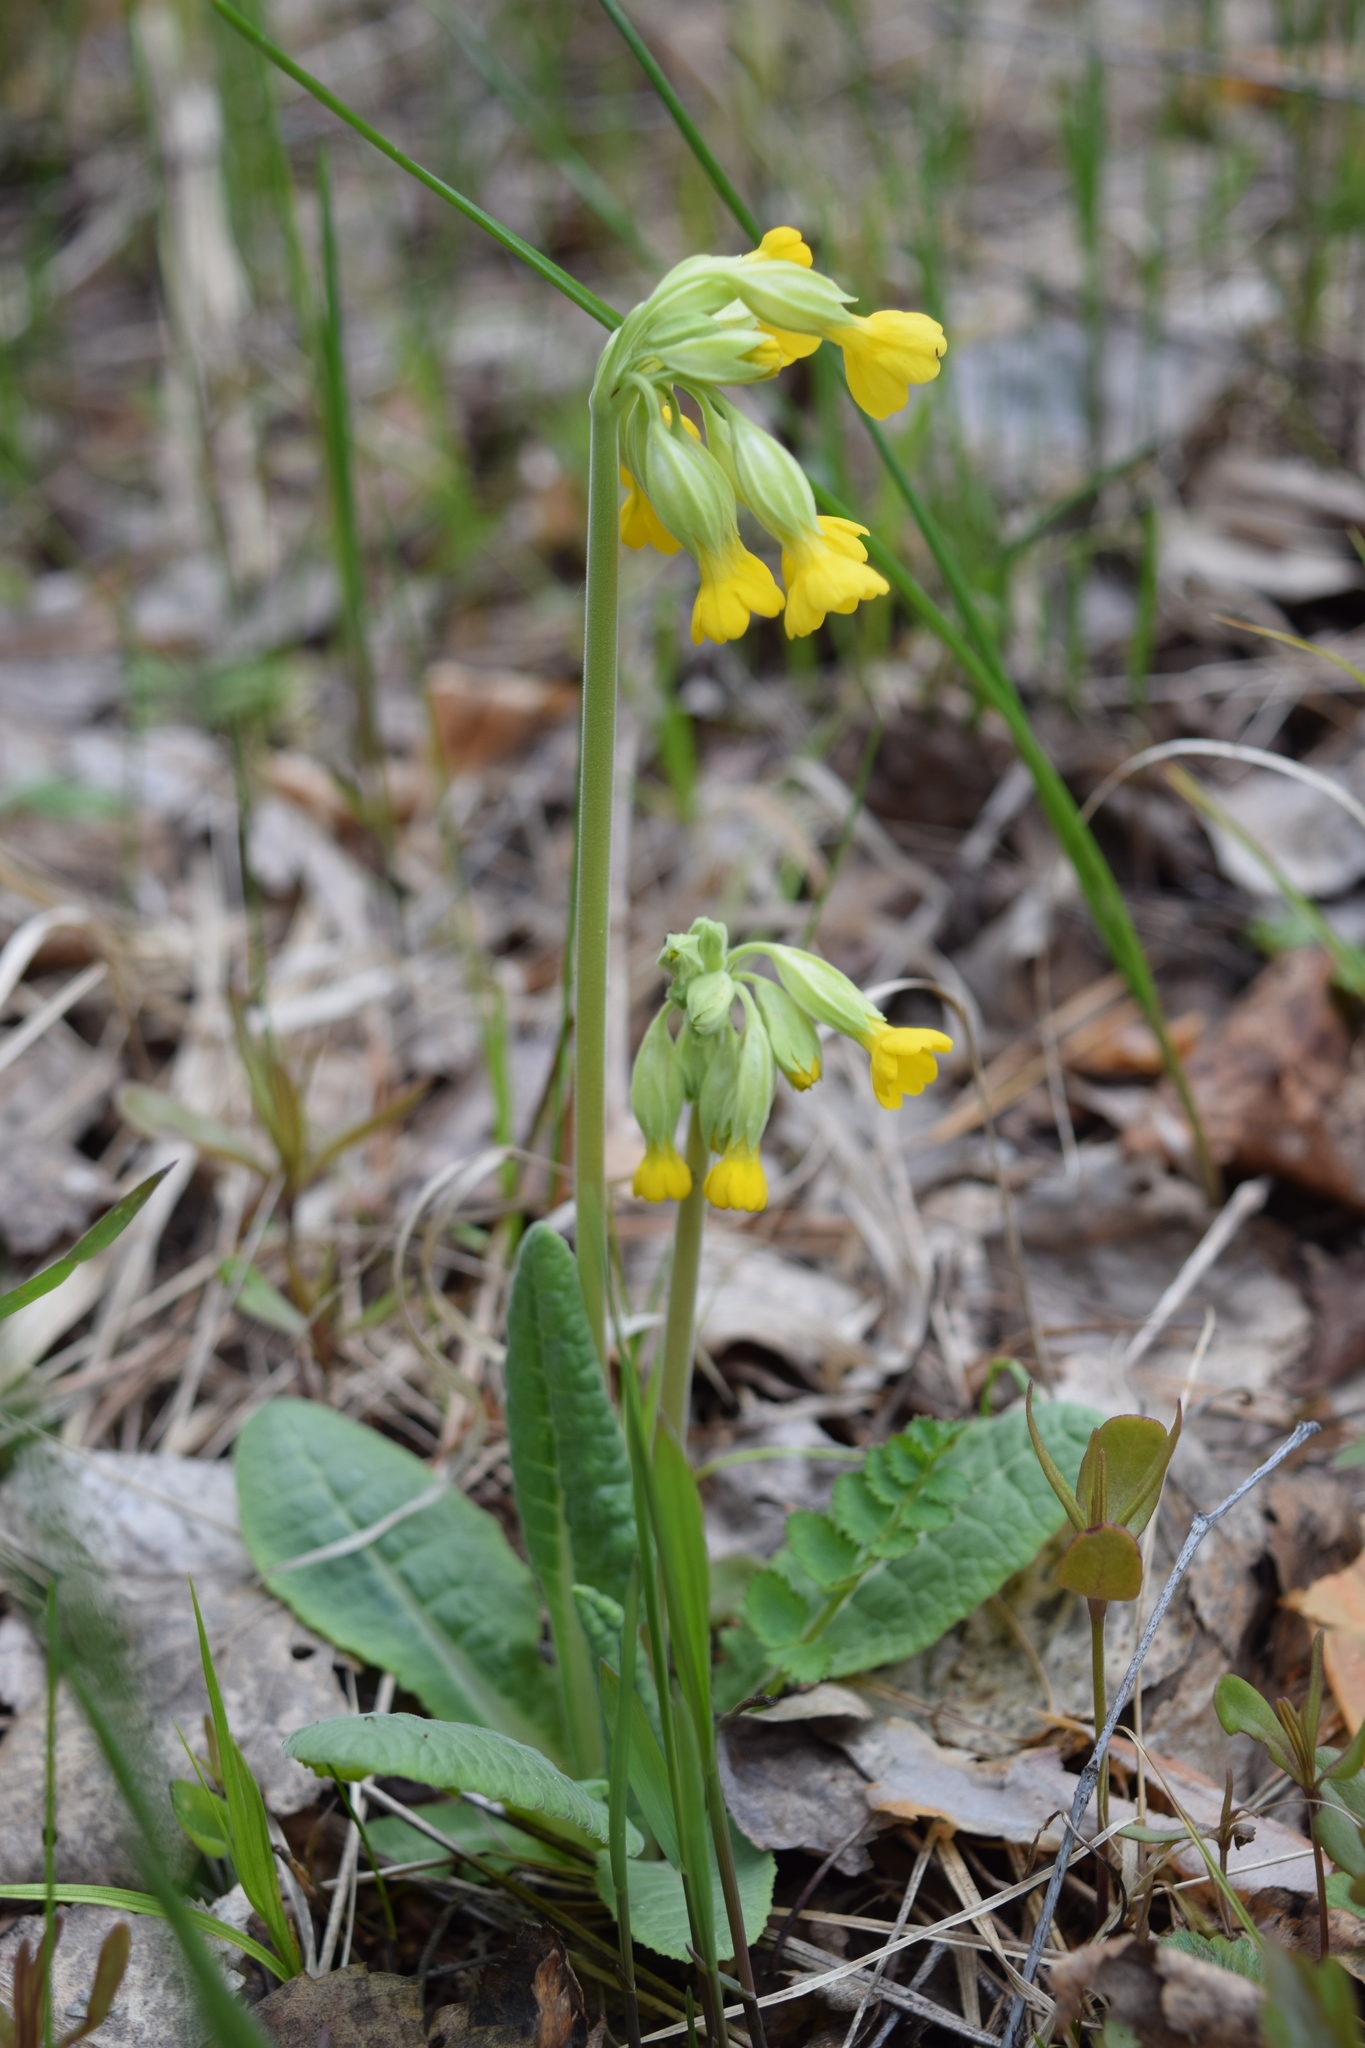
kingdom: Plantae
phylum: Tracheophyta
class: Magnoliopsida
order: Ericales
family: Primulaceae
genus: Primula
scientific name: Primula veris
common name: Cowslip
